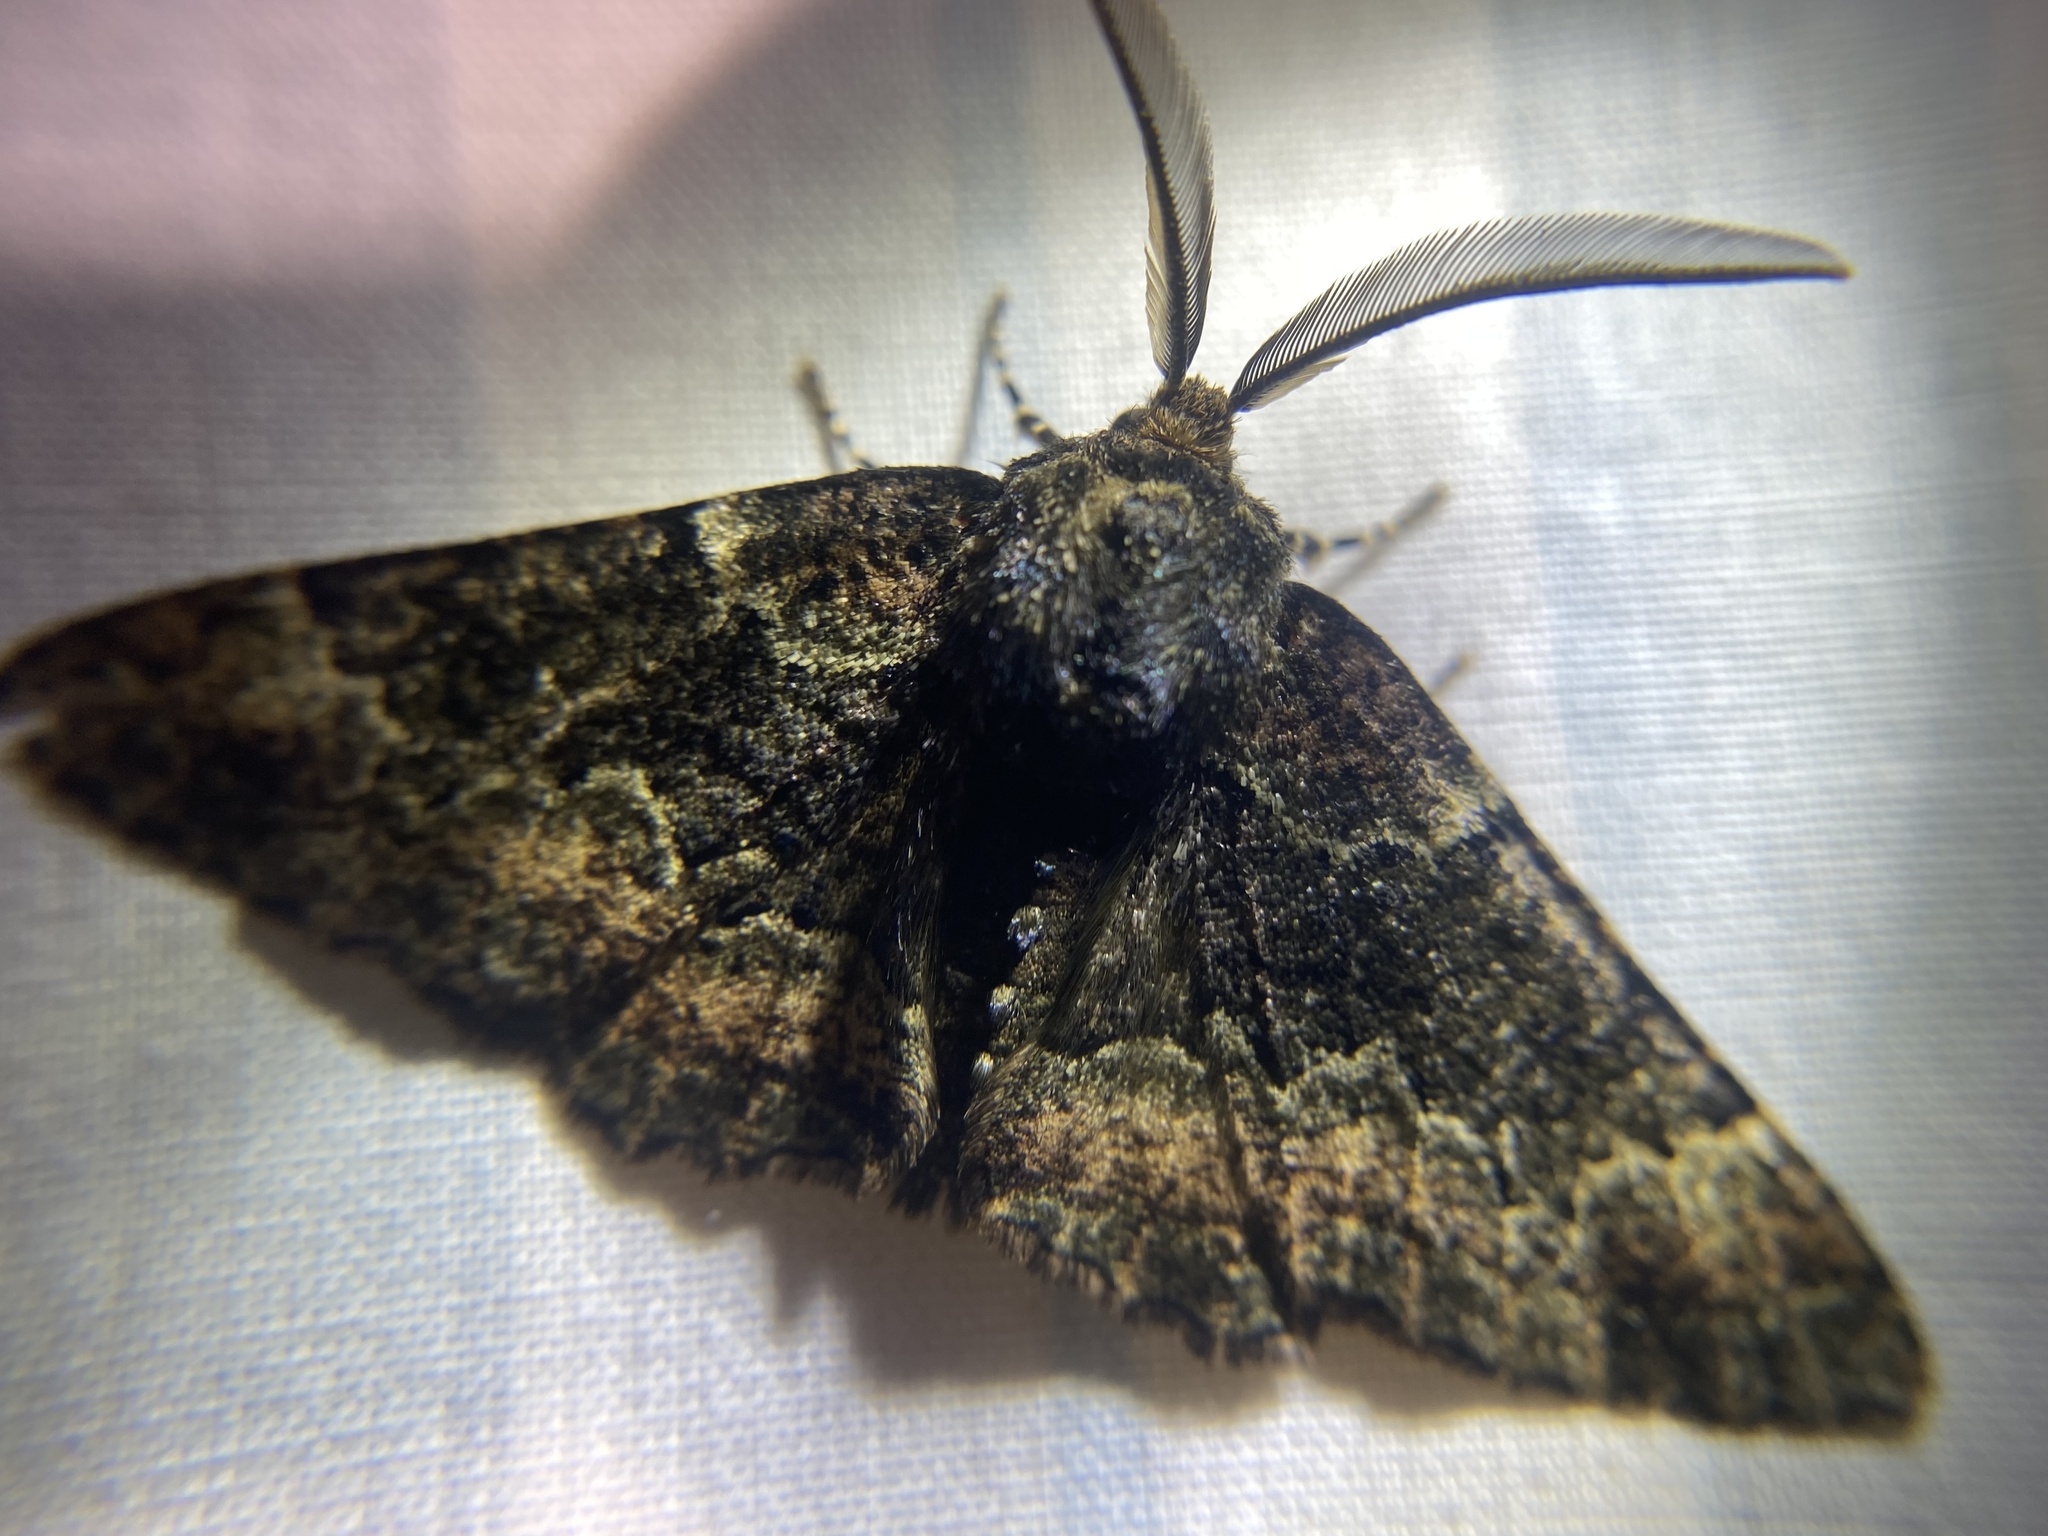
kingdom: Animalia
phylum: Arthropoda
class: Insecta
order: Lepidoptera
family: Geometridae
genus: Phaeoura
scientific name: Phaeoura quernaria
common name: Oak beauty
